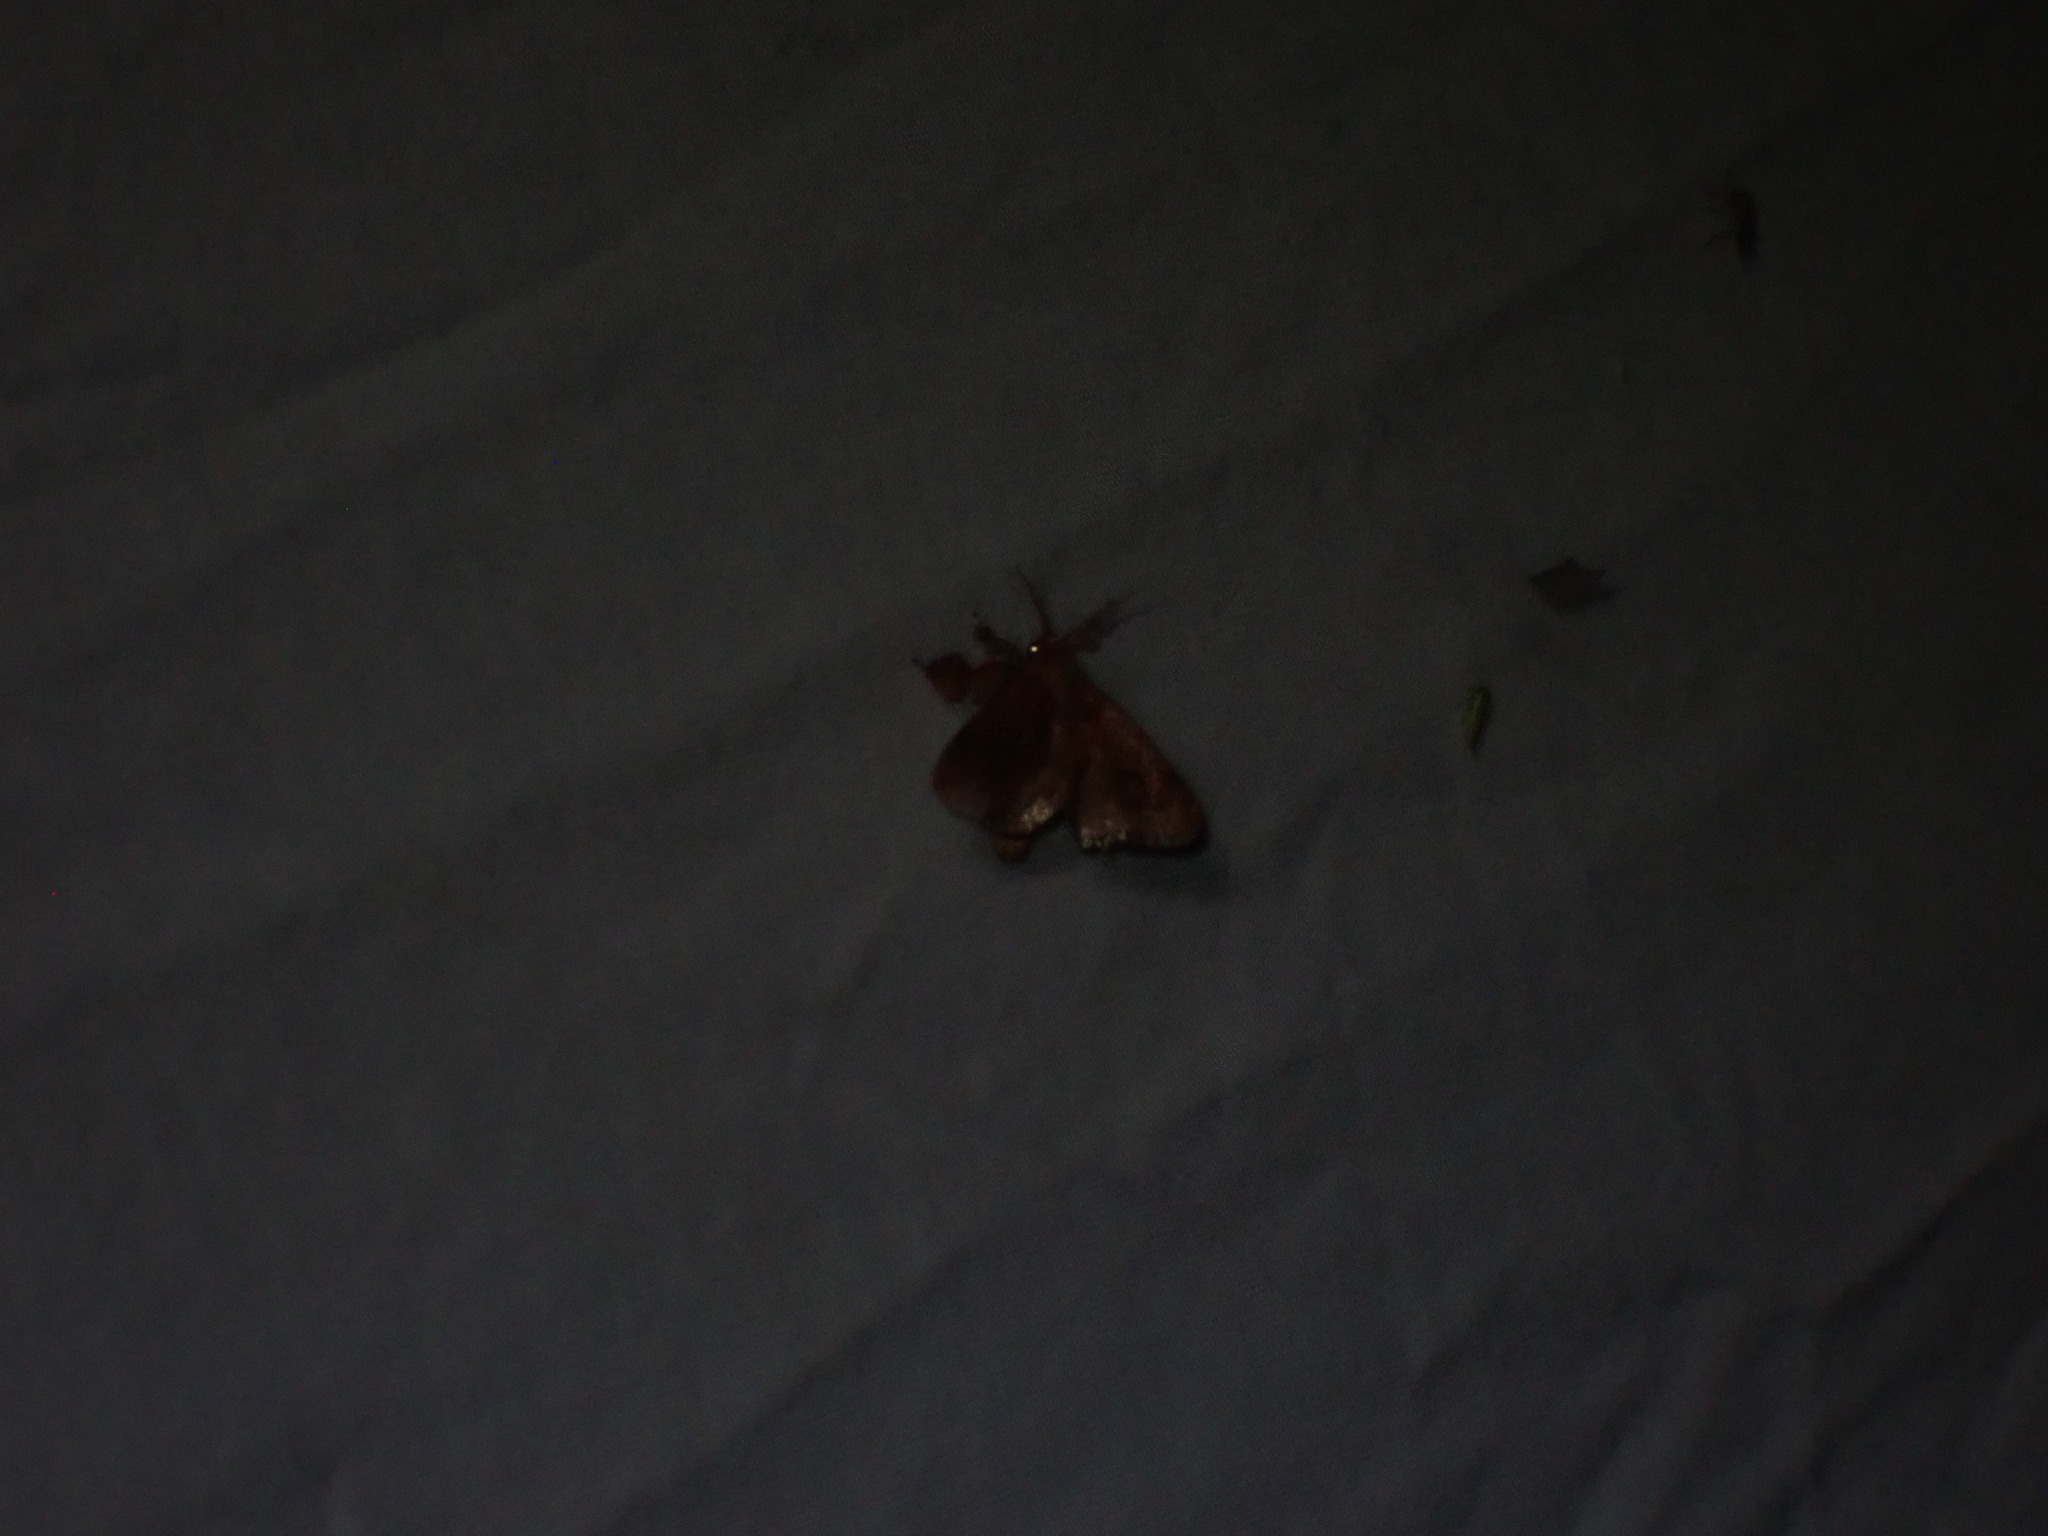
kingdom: Animalia
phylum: Arthropoda
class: Insecta
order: Lepidoptera
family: Limacodidae
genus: Isochaetes
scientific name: Isochaetes beutenmuelleri
